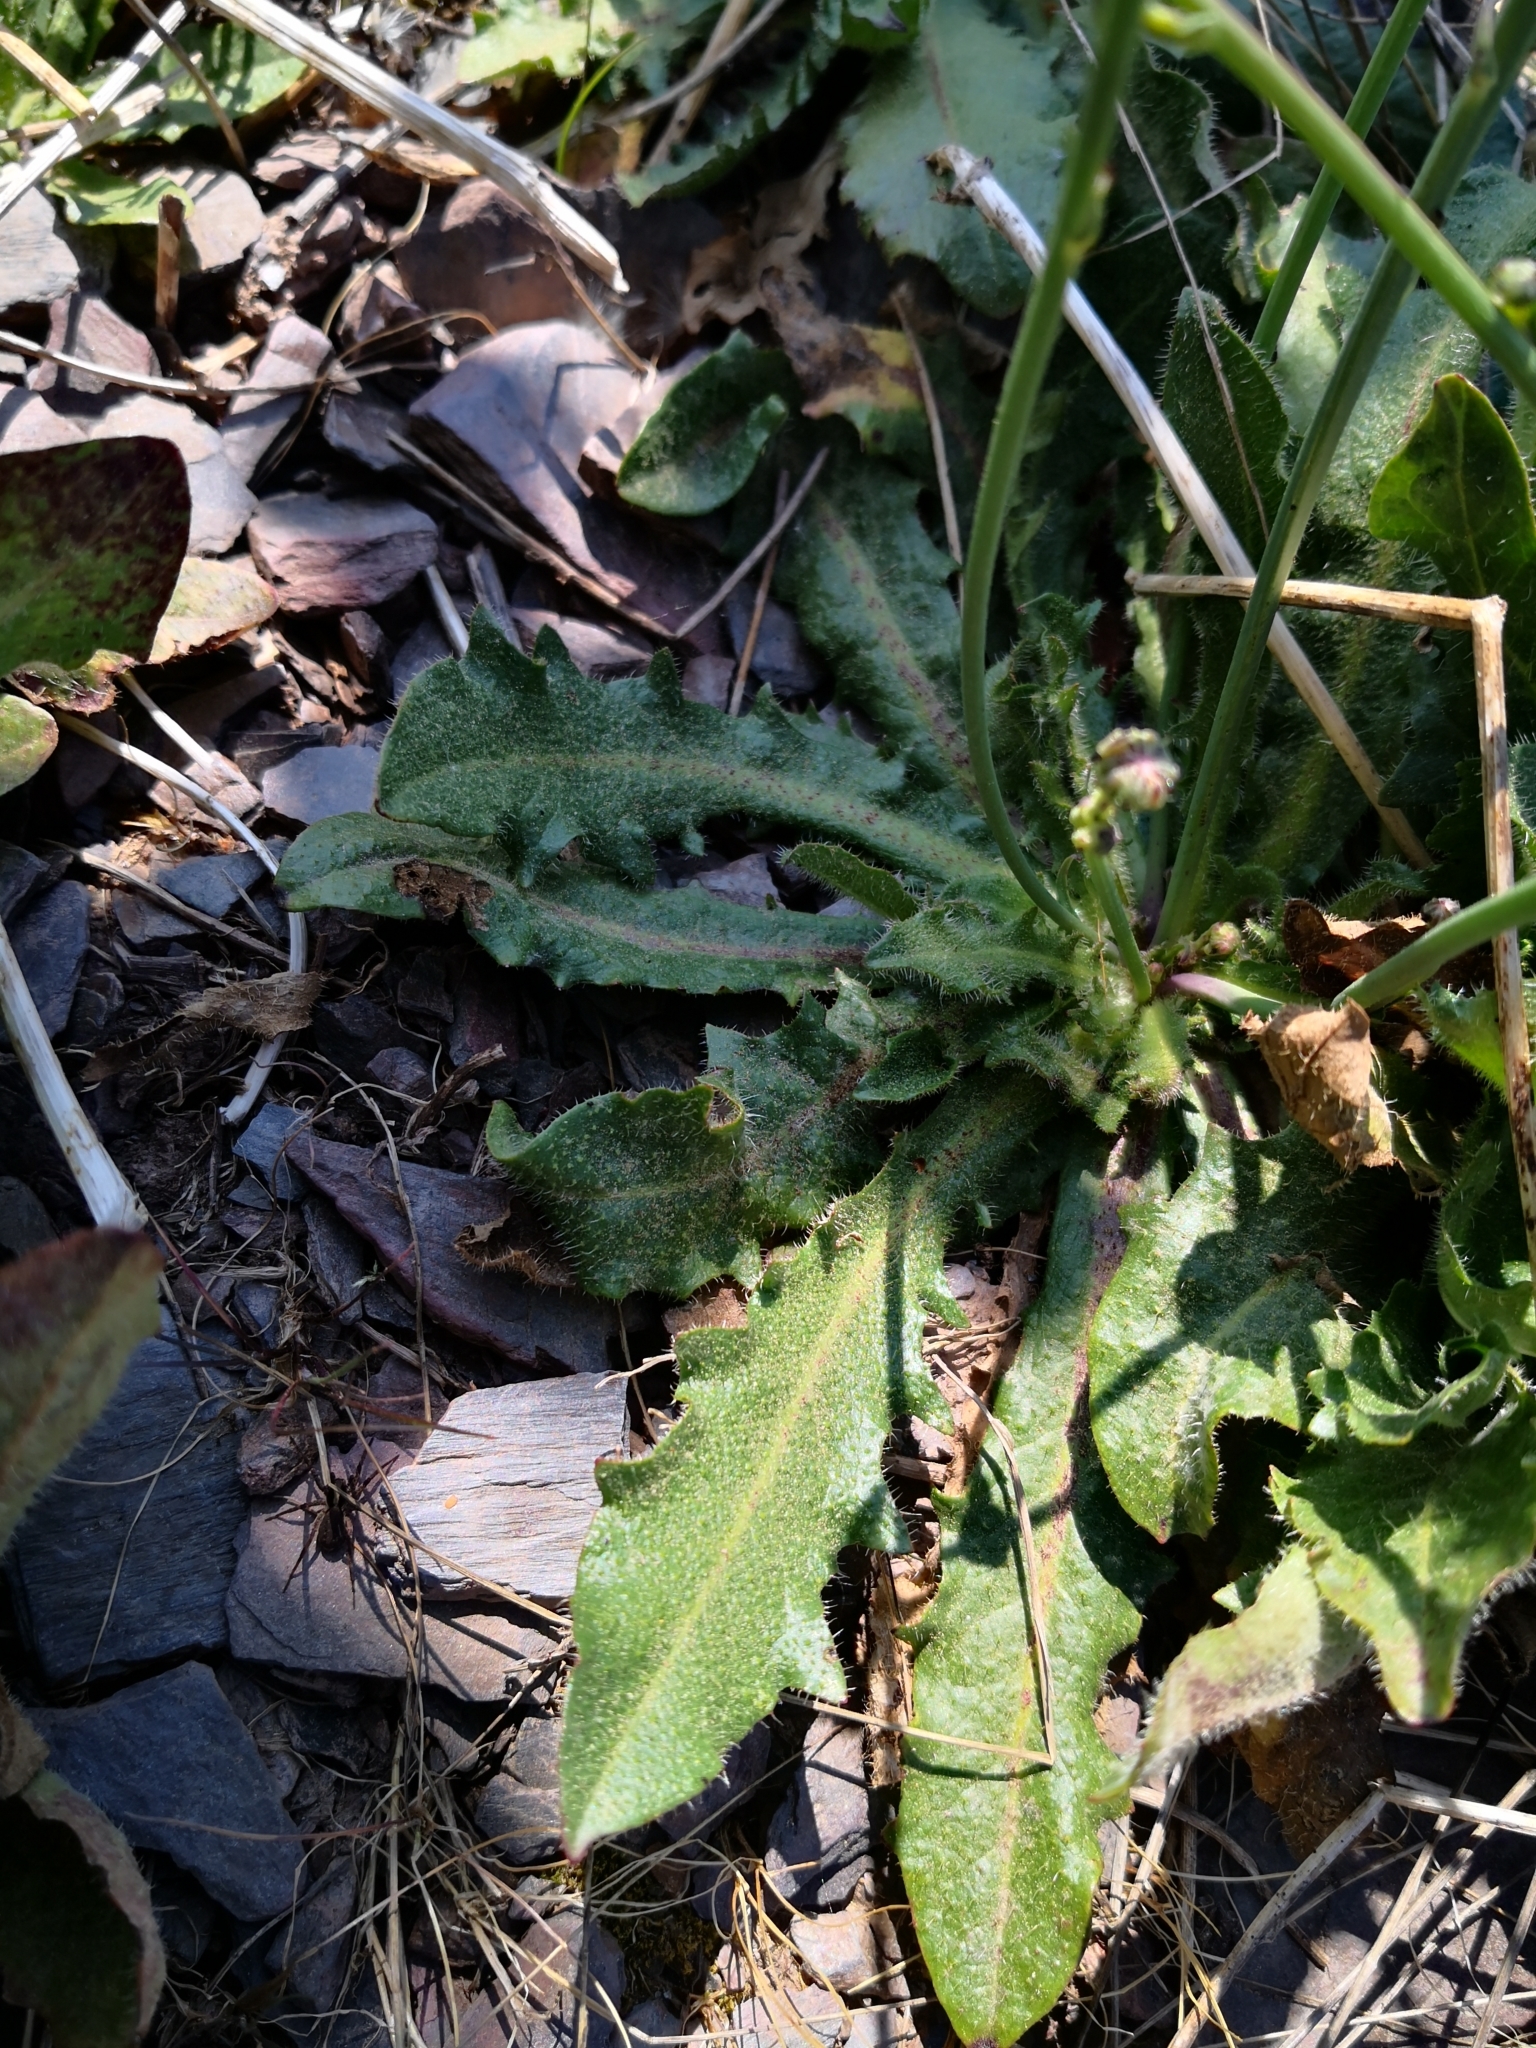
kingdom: Plantae
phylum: Tracheophyta
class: Magnoliopsida
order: Asterales
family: Asteraceae
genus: Hypochaeris
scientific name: Hypochaeris radicata
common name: Flatweed
